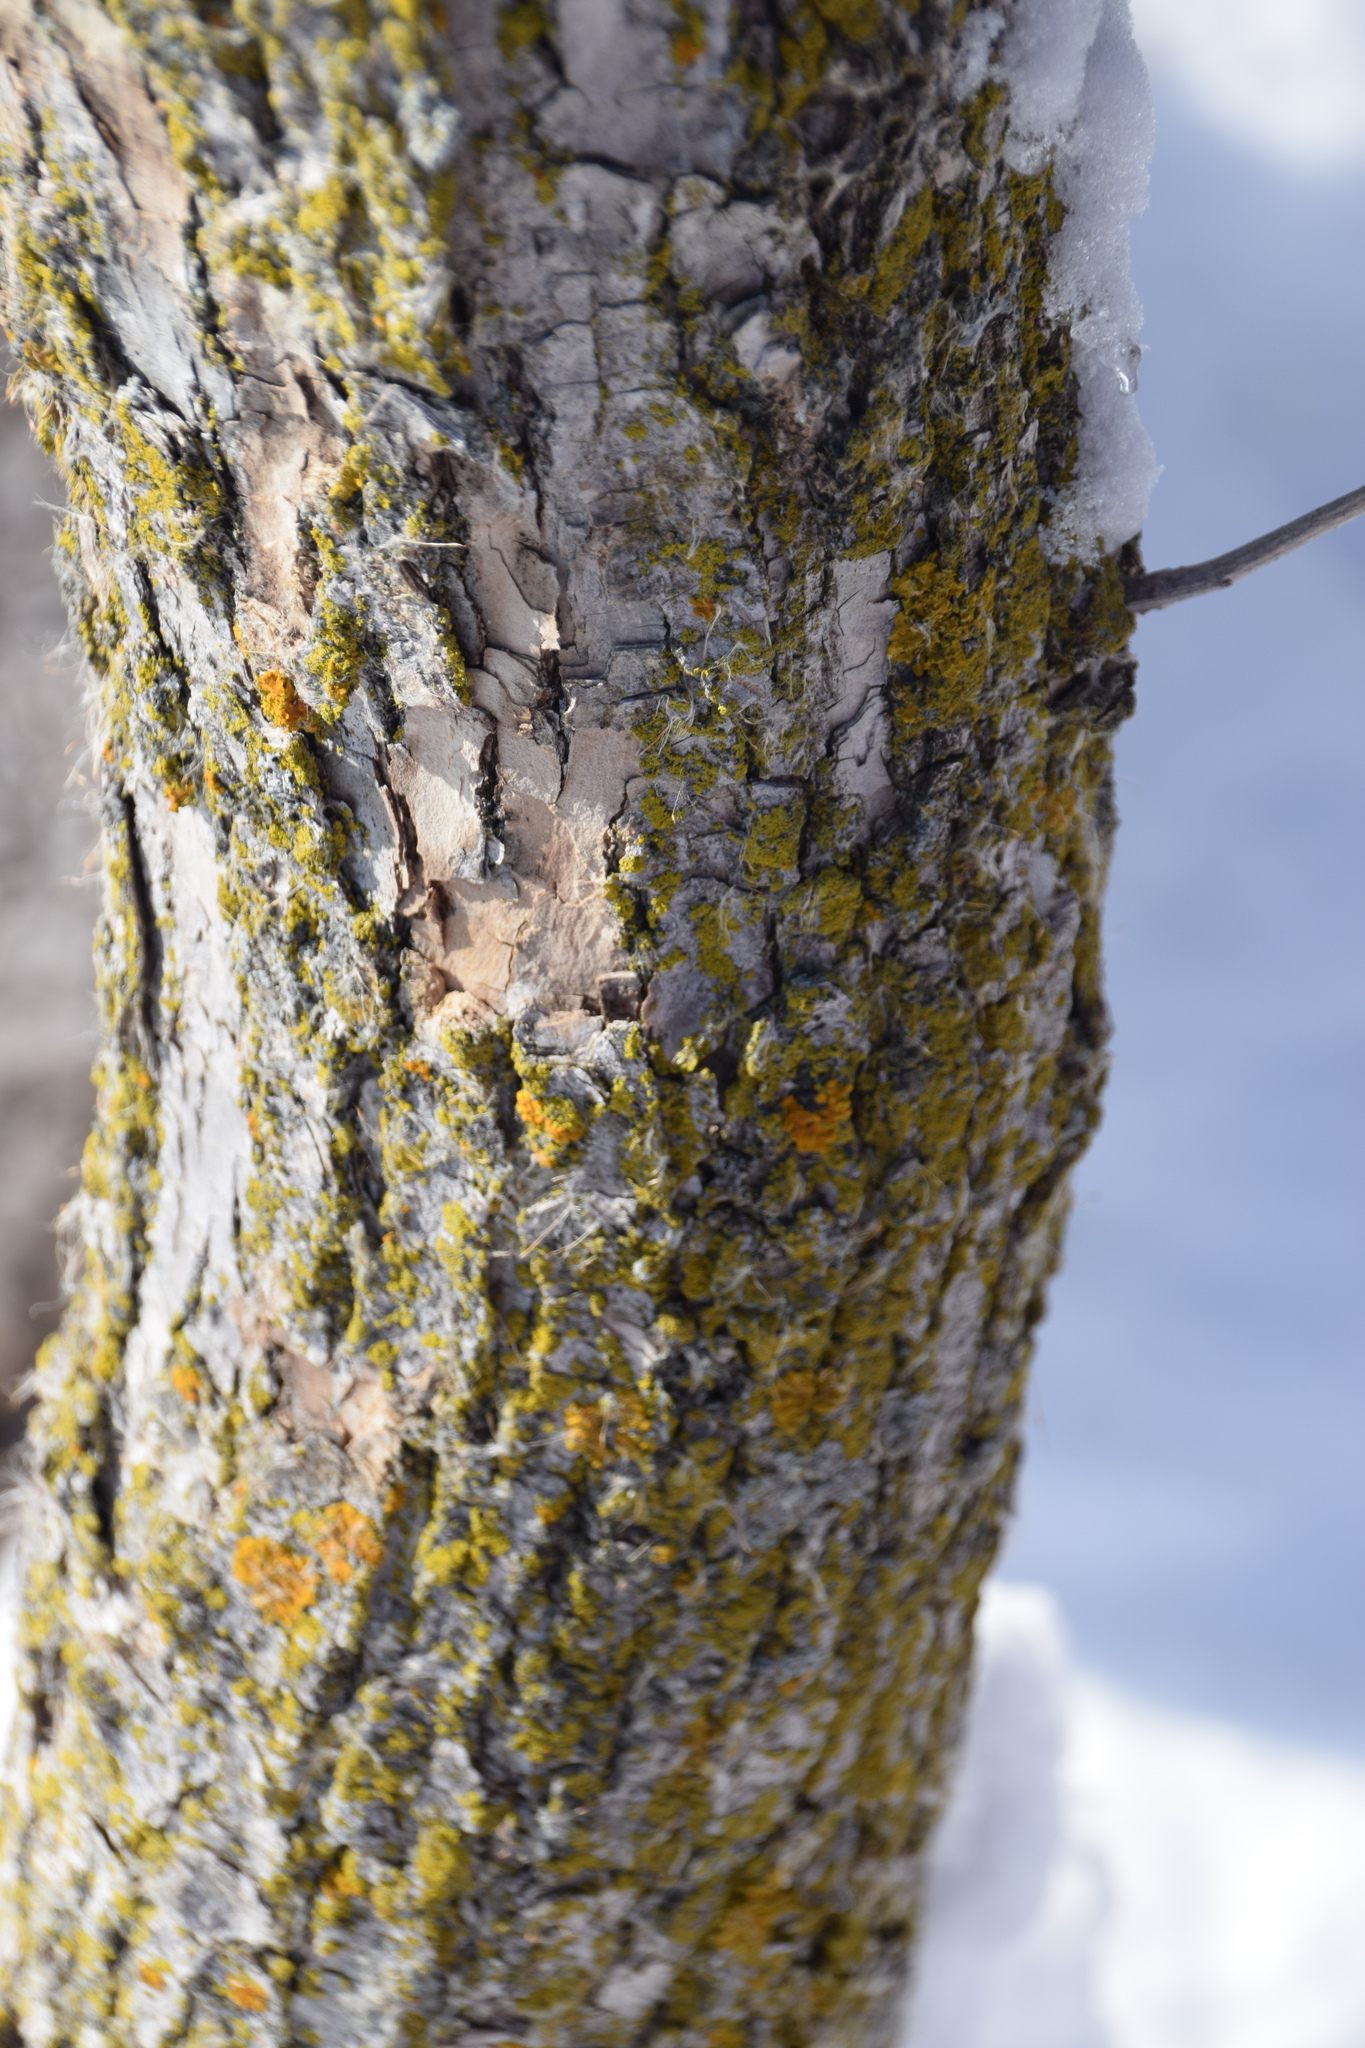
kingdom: Plantae
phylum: Tracheophyta
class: Magnoliopsida
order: Lamiales
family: Oleaceae
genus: Fraxinus
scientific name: Fraxinus pennsylvanica
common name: Green ash
